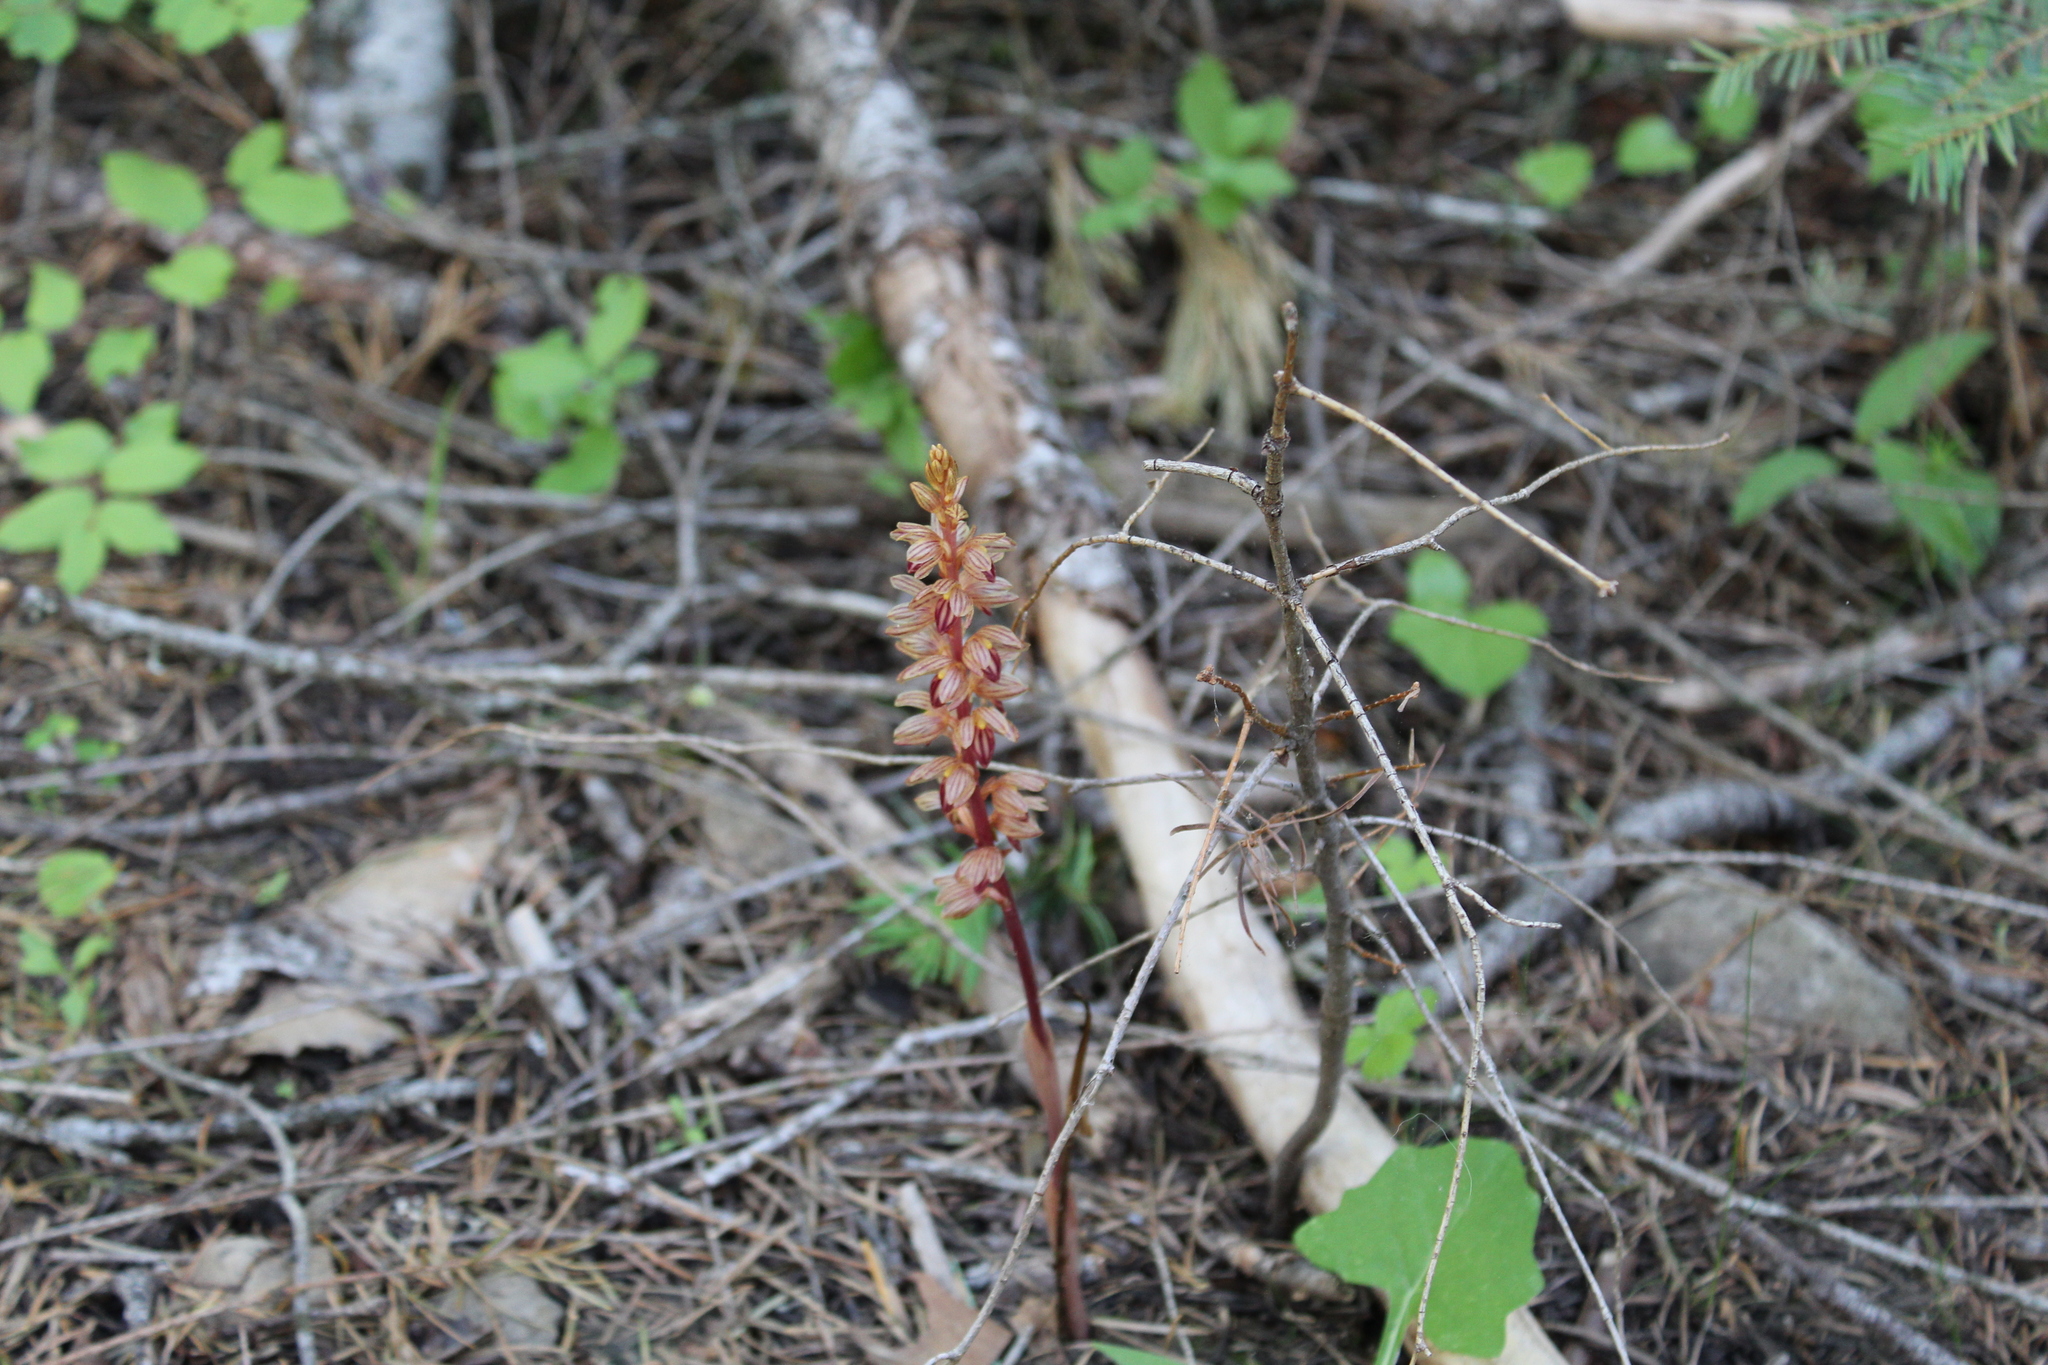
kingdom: Plantae
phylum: Tracheophyta
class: Liliopsida
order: Asparagales
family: Orchidaceae
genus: Corallorhiza
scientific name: Corallorhiza striata
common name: Hooded coralroot
